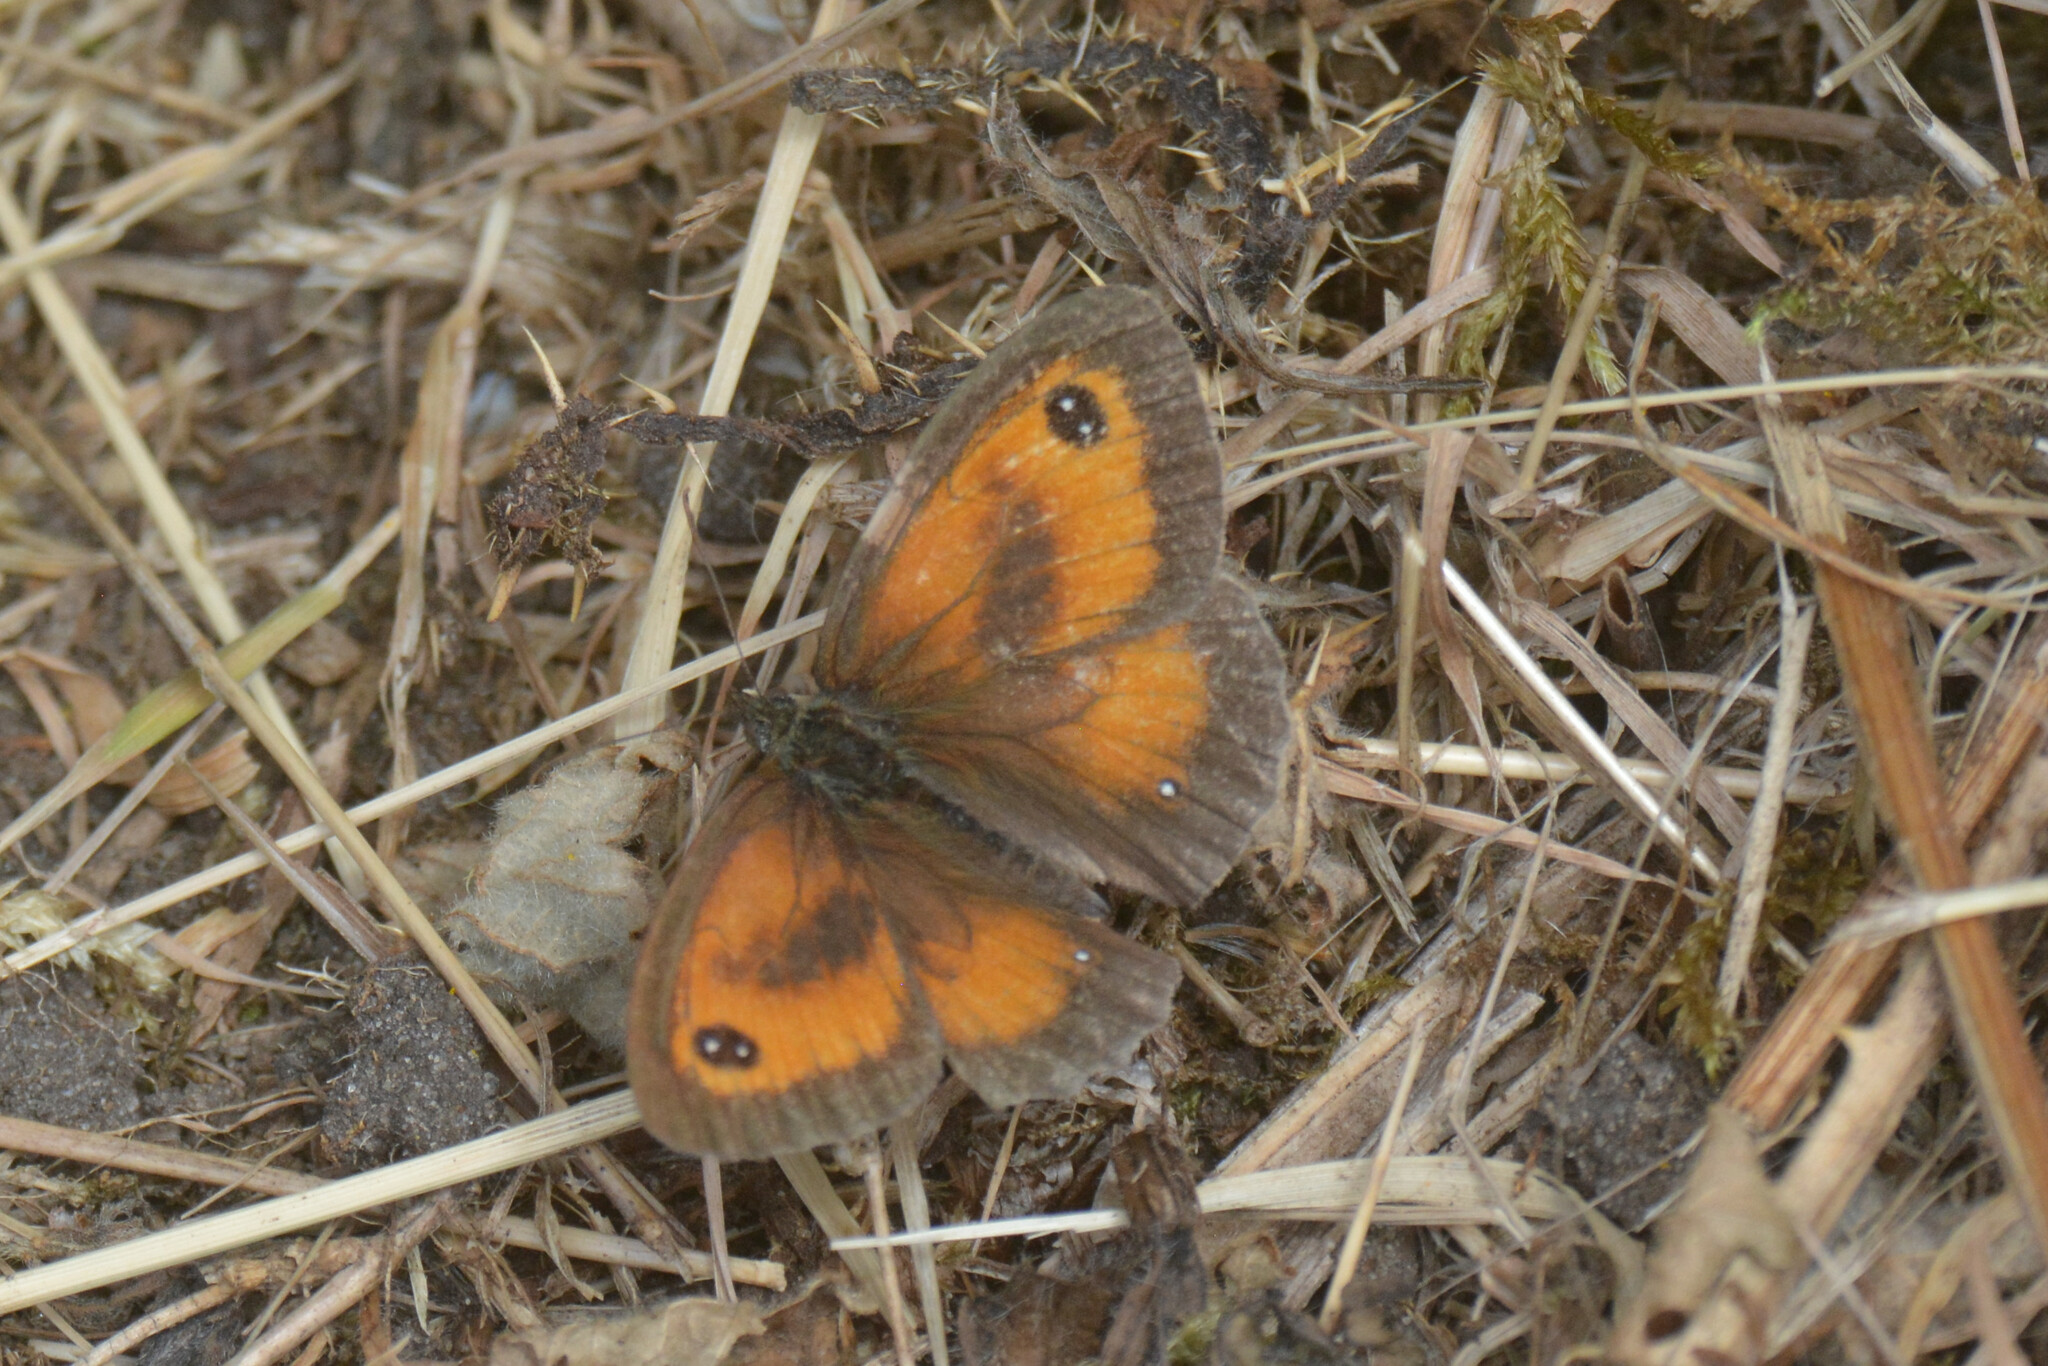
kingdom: Animalia
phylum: Arthropoda
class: Insecta
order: Lepidoptera
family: Nymphalidae
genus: Pyronia
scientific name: Pyronia tithonus
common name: Gatekeeper
